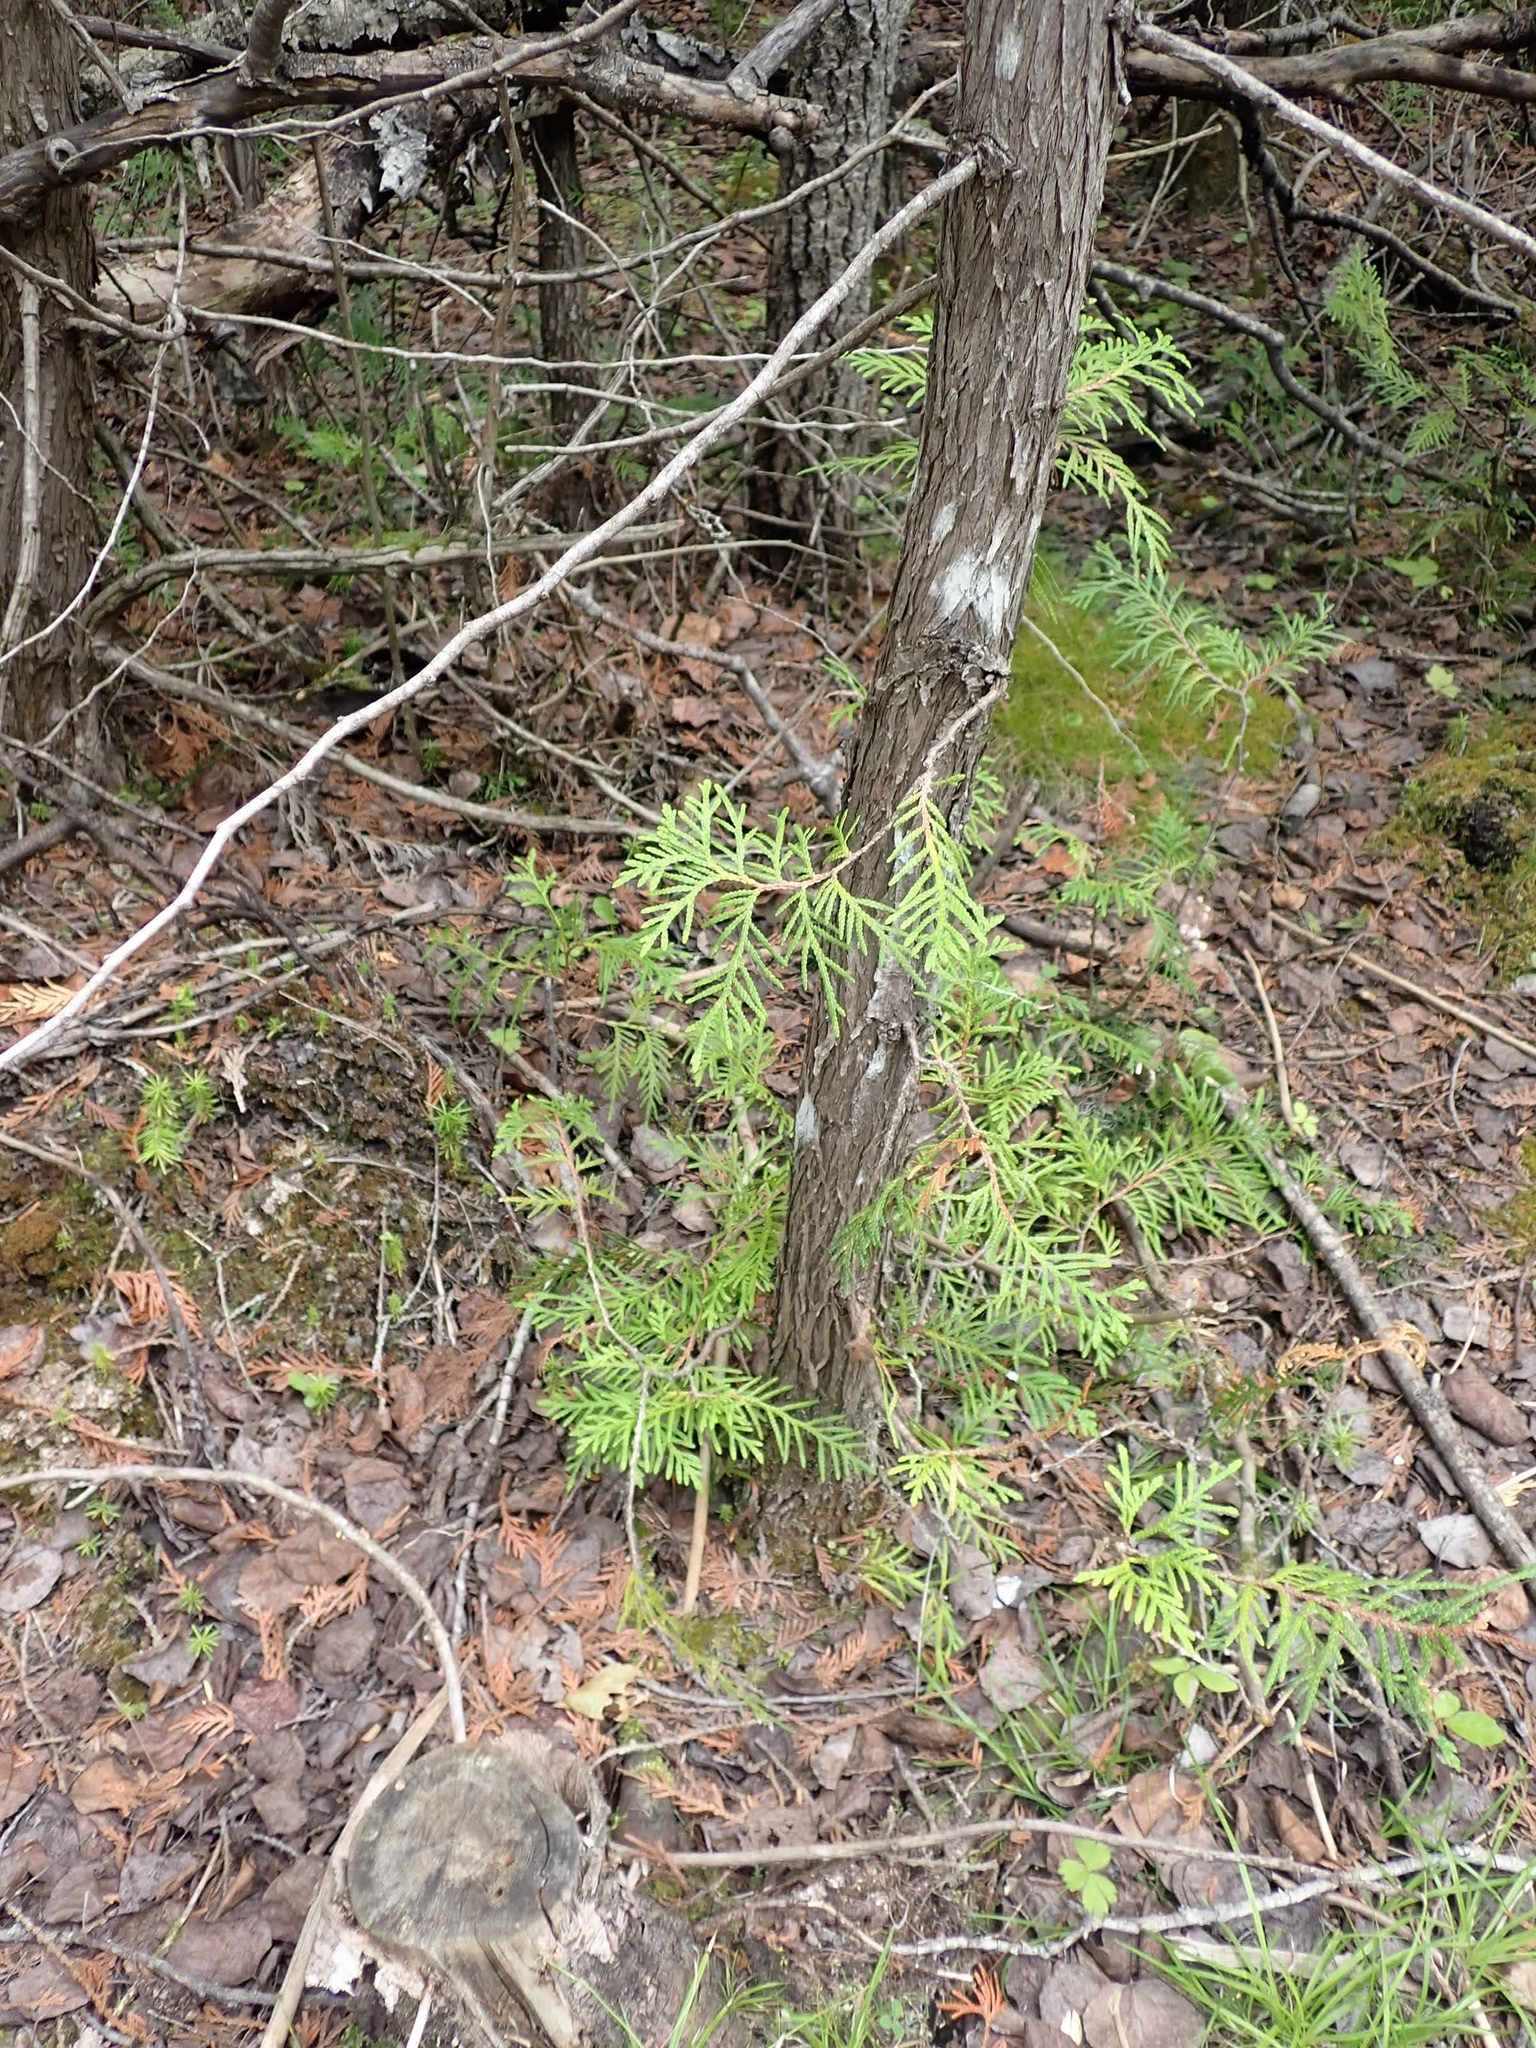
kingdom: Plantae
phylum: Tracheophyta
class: Pinopsida
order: Pinales
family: Cupressaceae
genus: Thuja
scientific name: Thuja occidentalis
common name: Northern white-cedar
